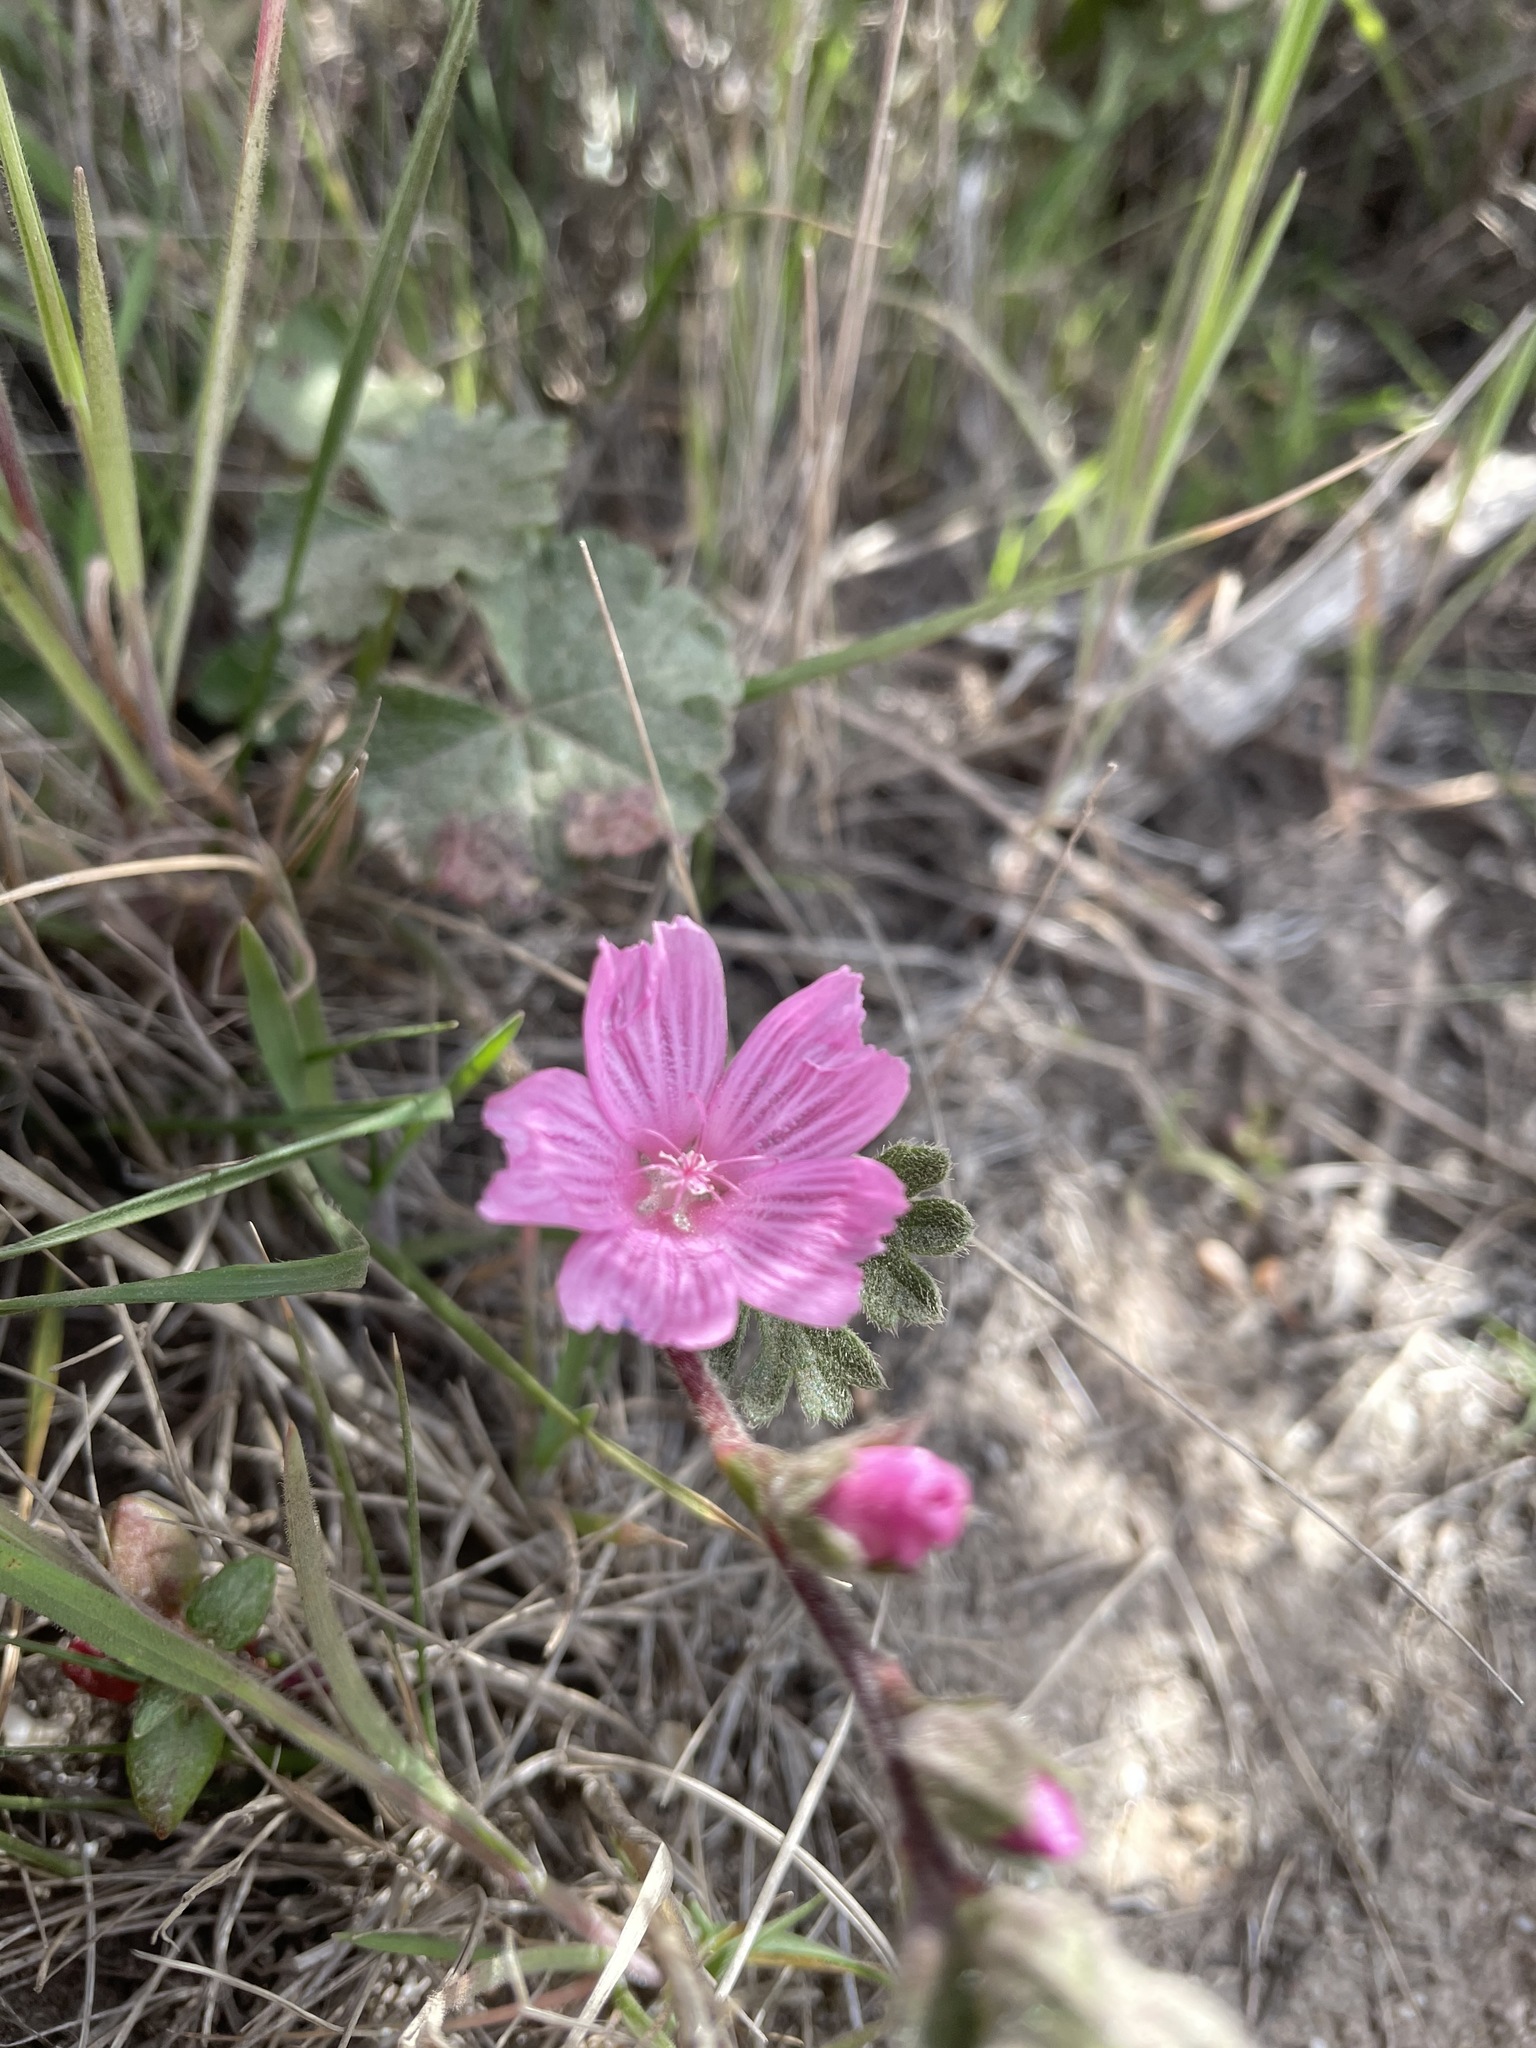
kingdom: Plantae
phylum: Tracheophyta
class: Magnoliopsida
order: Malvales
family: Malvaceae
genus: Sidalcea
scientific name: Sidalcea malviflora
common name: Greek mallow
